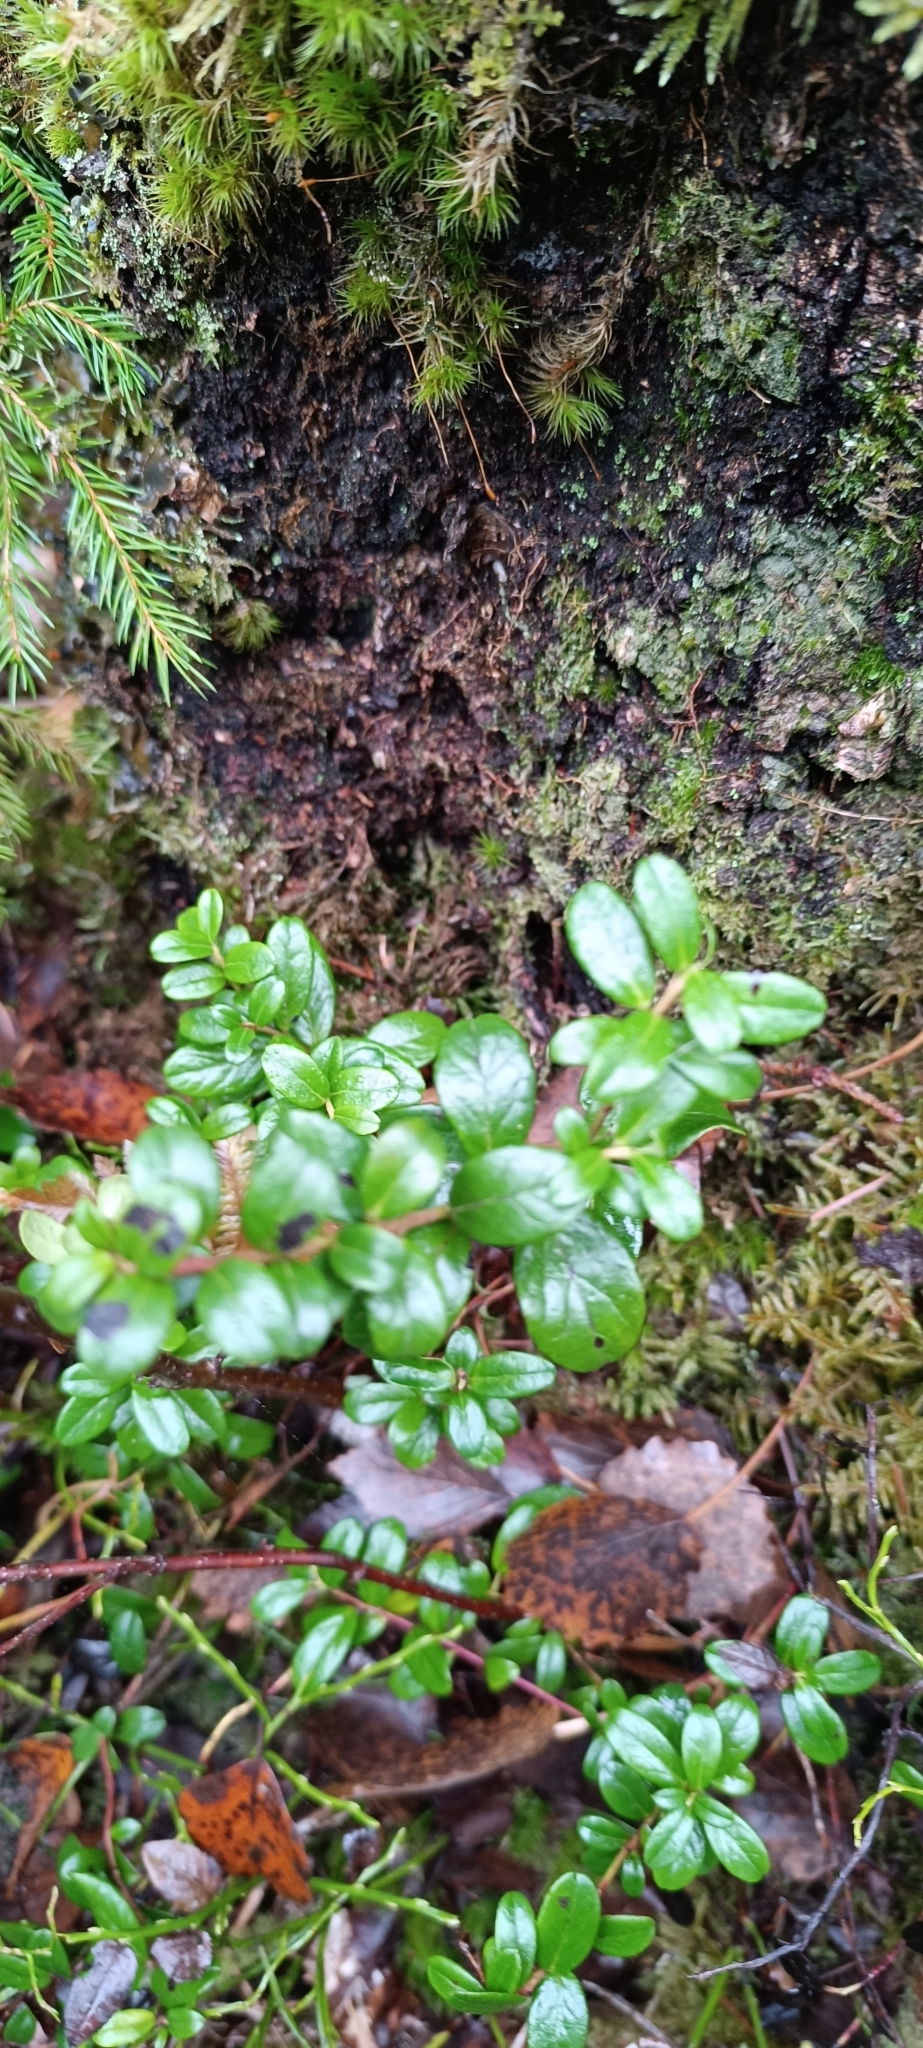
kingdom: Plantae
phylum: Tracheophyta
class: Magnoliopsida
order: Ericales
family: Ericaceae
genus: Vaccinium
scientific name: Vaccinium vitis-idaea
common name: Cowberry
